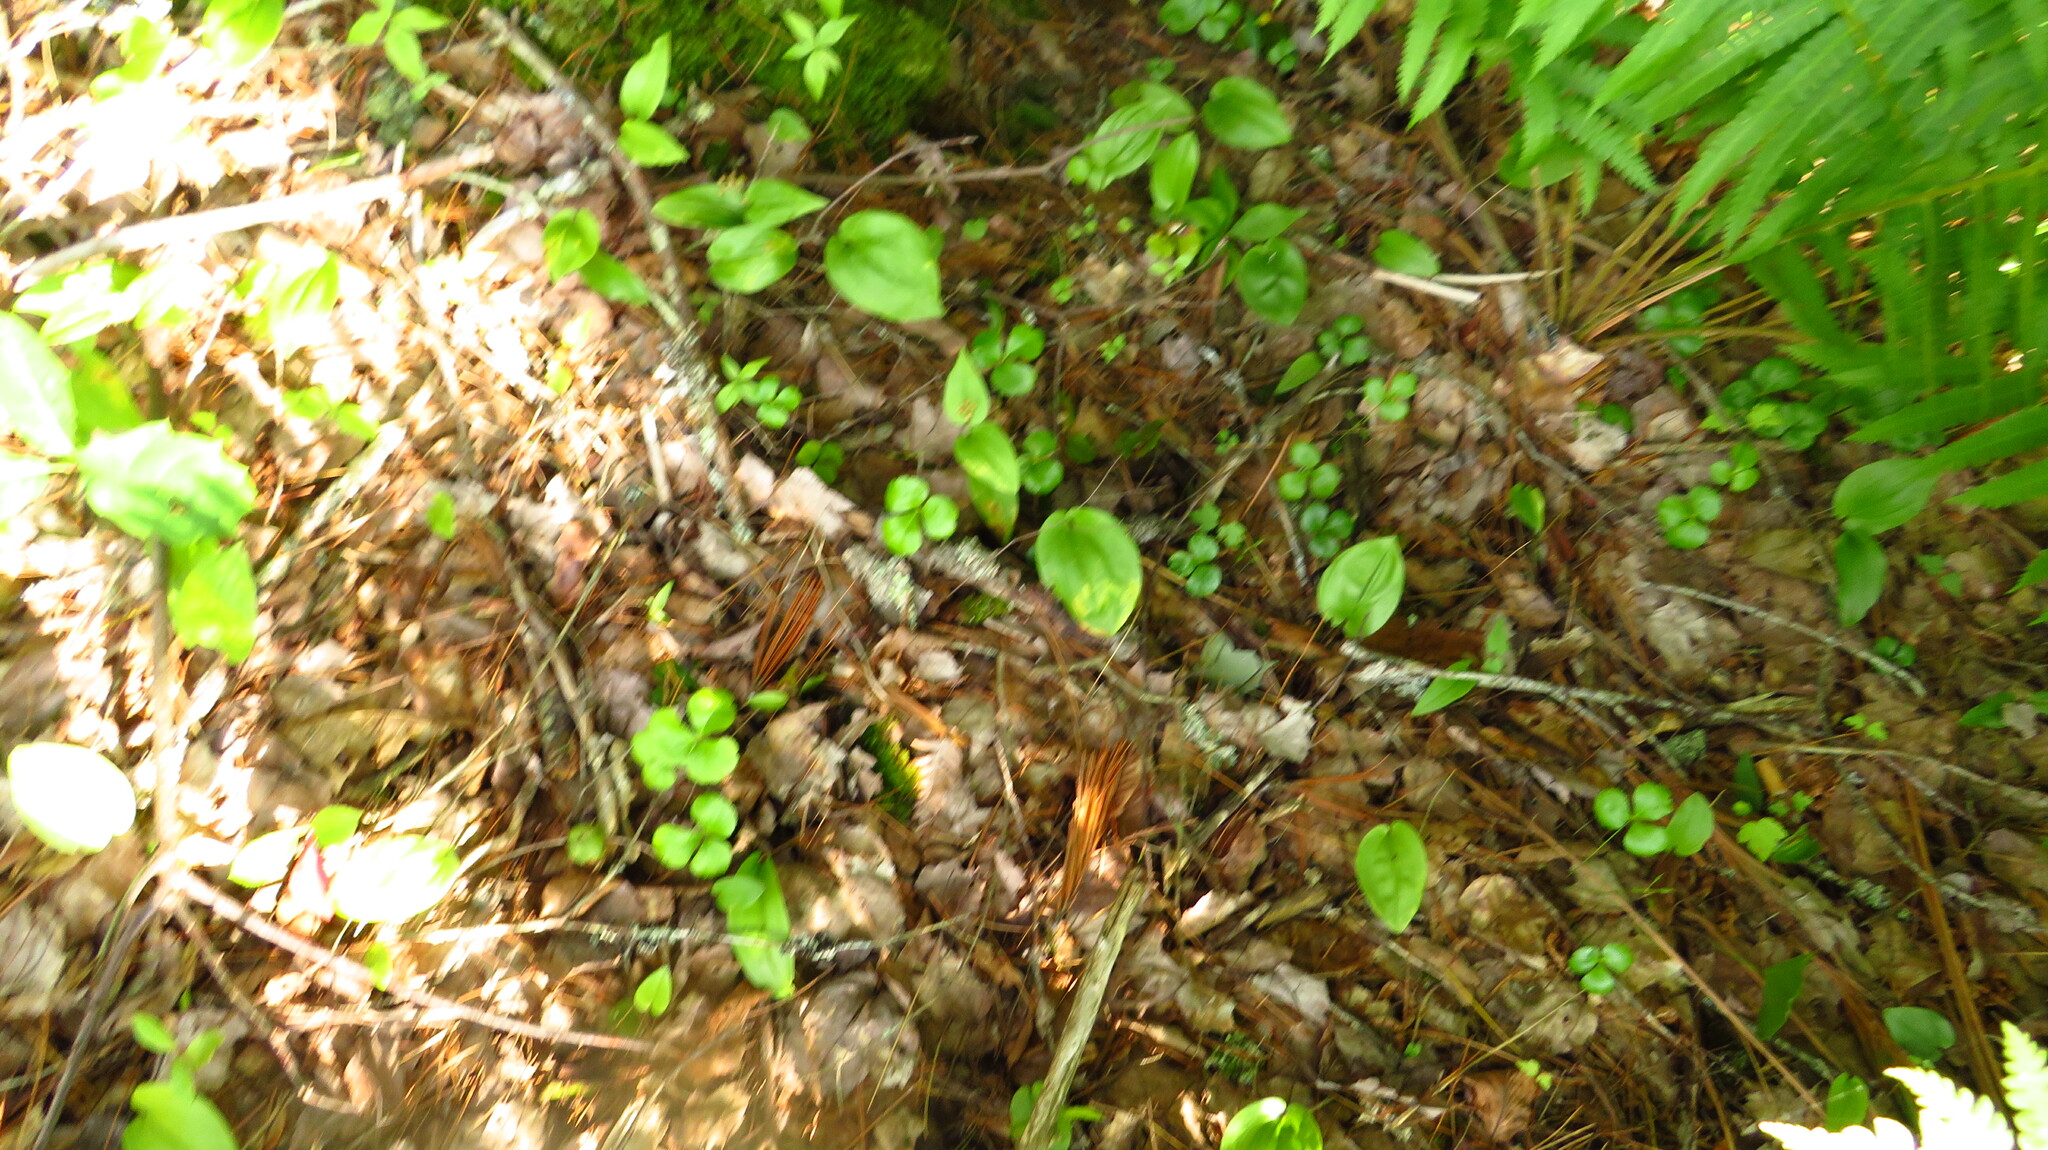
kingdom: Plantae
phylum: Tracheophyta
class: Liliopsida
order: Asparagales
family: Asparagaceae
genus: Maianthemum
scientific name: Maianthemum canadense
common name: False lily-of-the-valley
